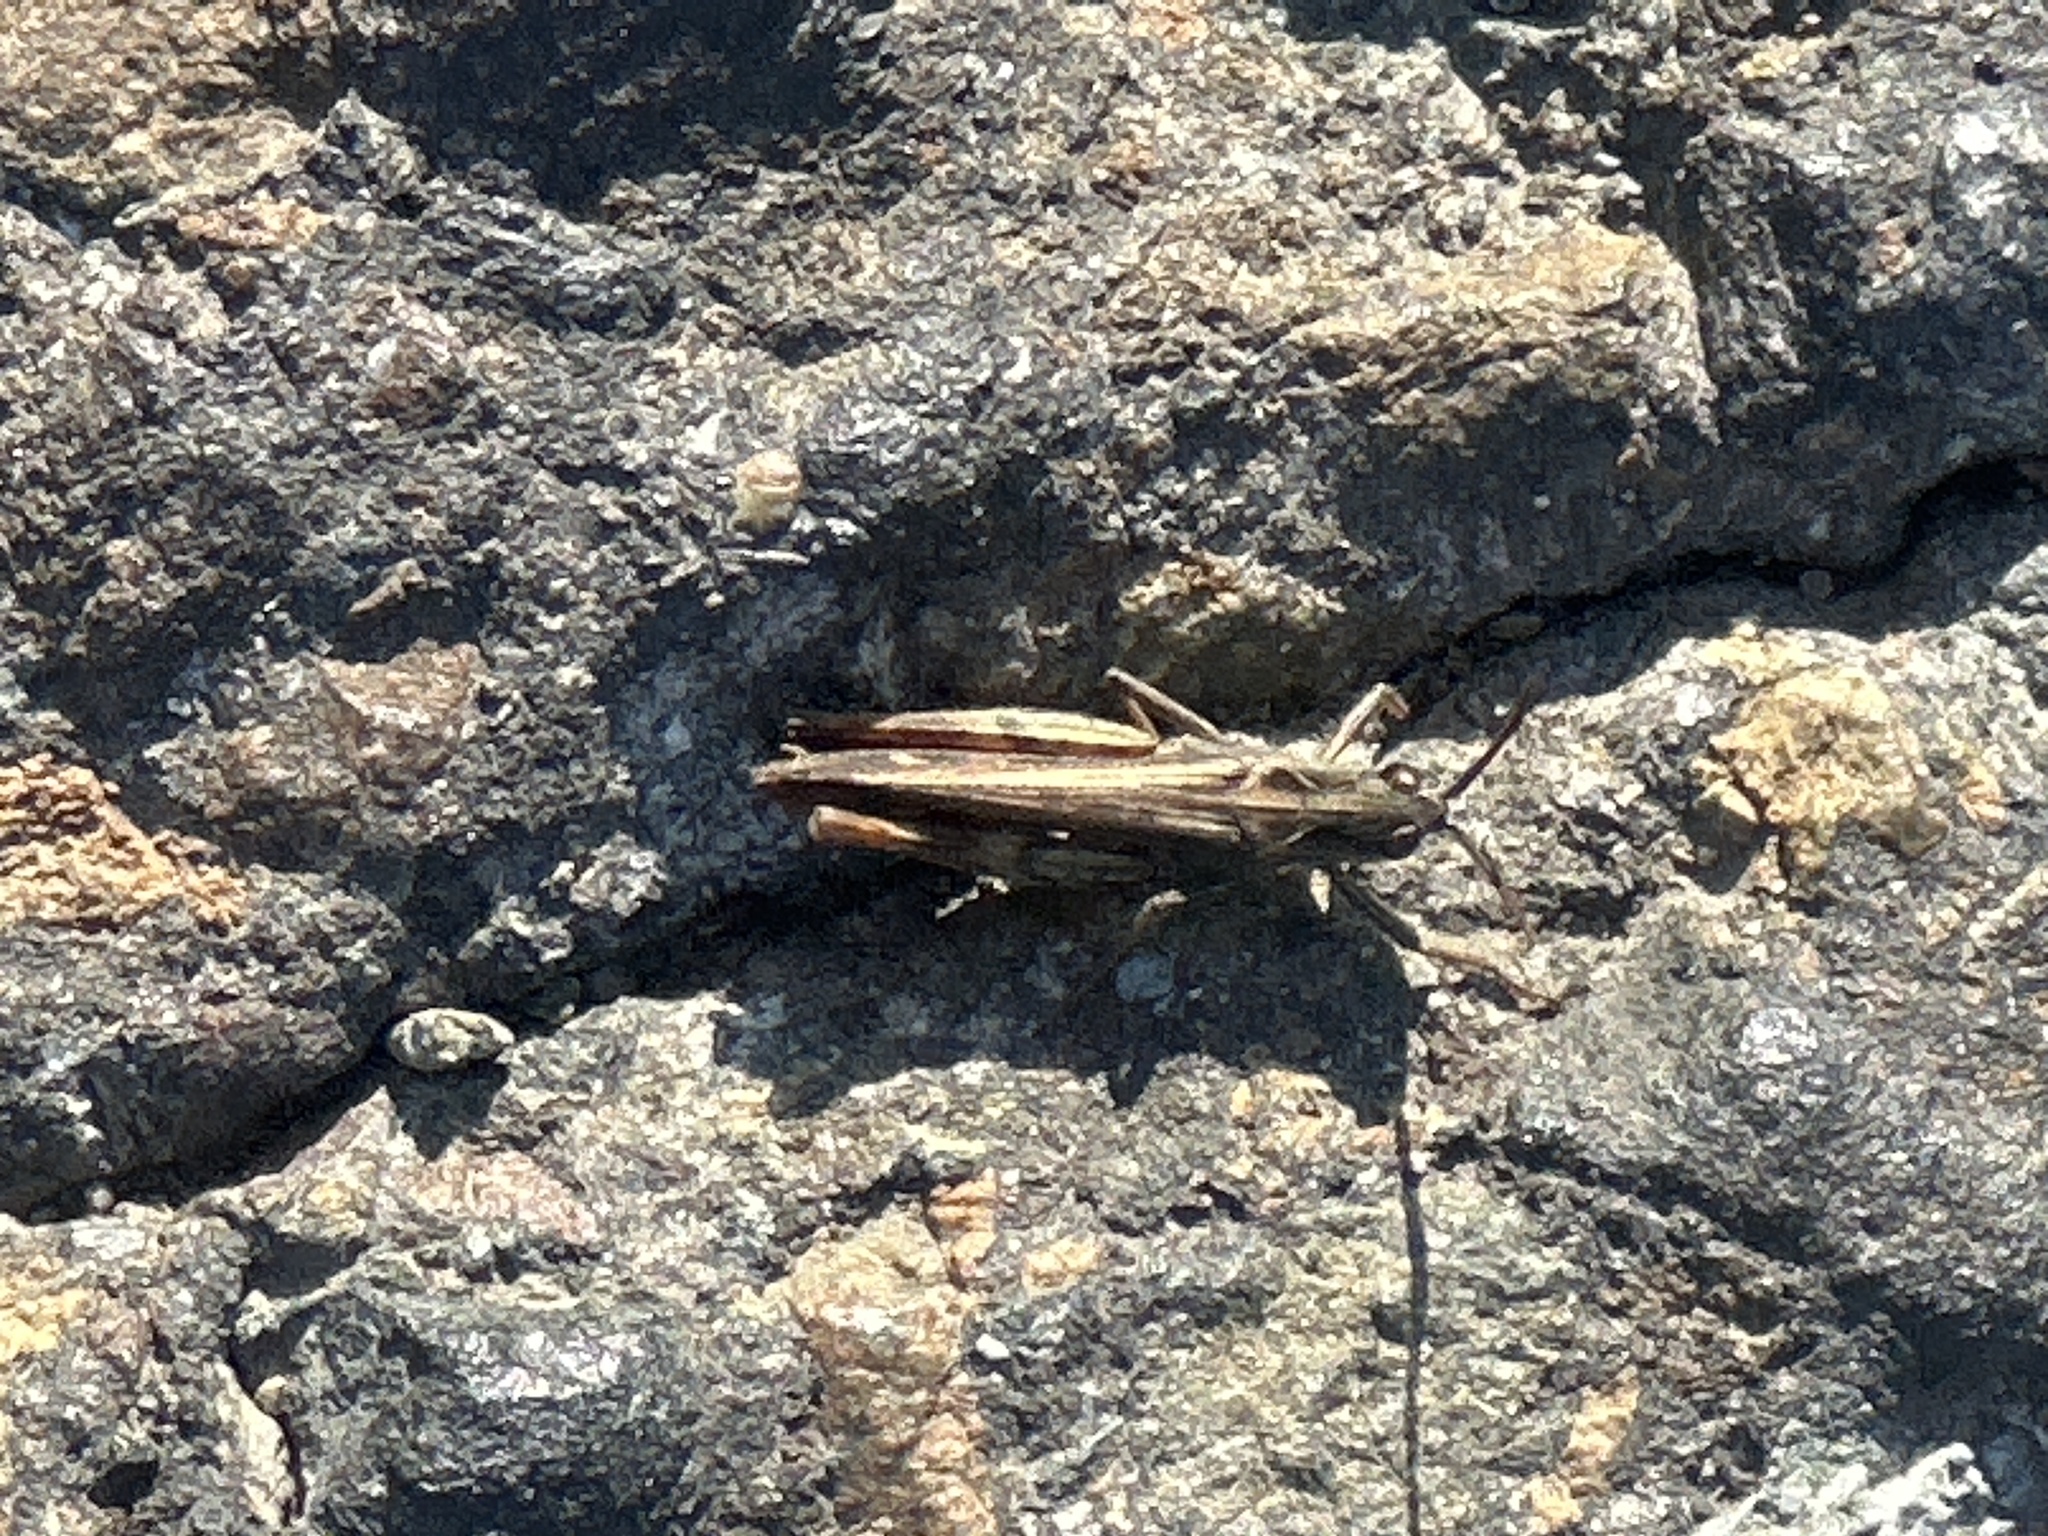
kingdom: Animalia
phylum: Arthropoda
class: Insecta
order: Orthoptera
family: Acrididae
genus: Chorthippus
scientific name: Chorthippus brunneus
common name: Field grasshopper
